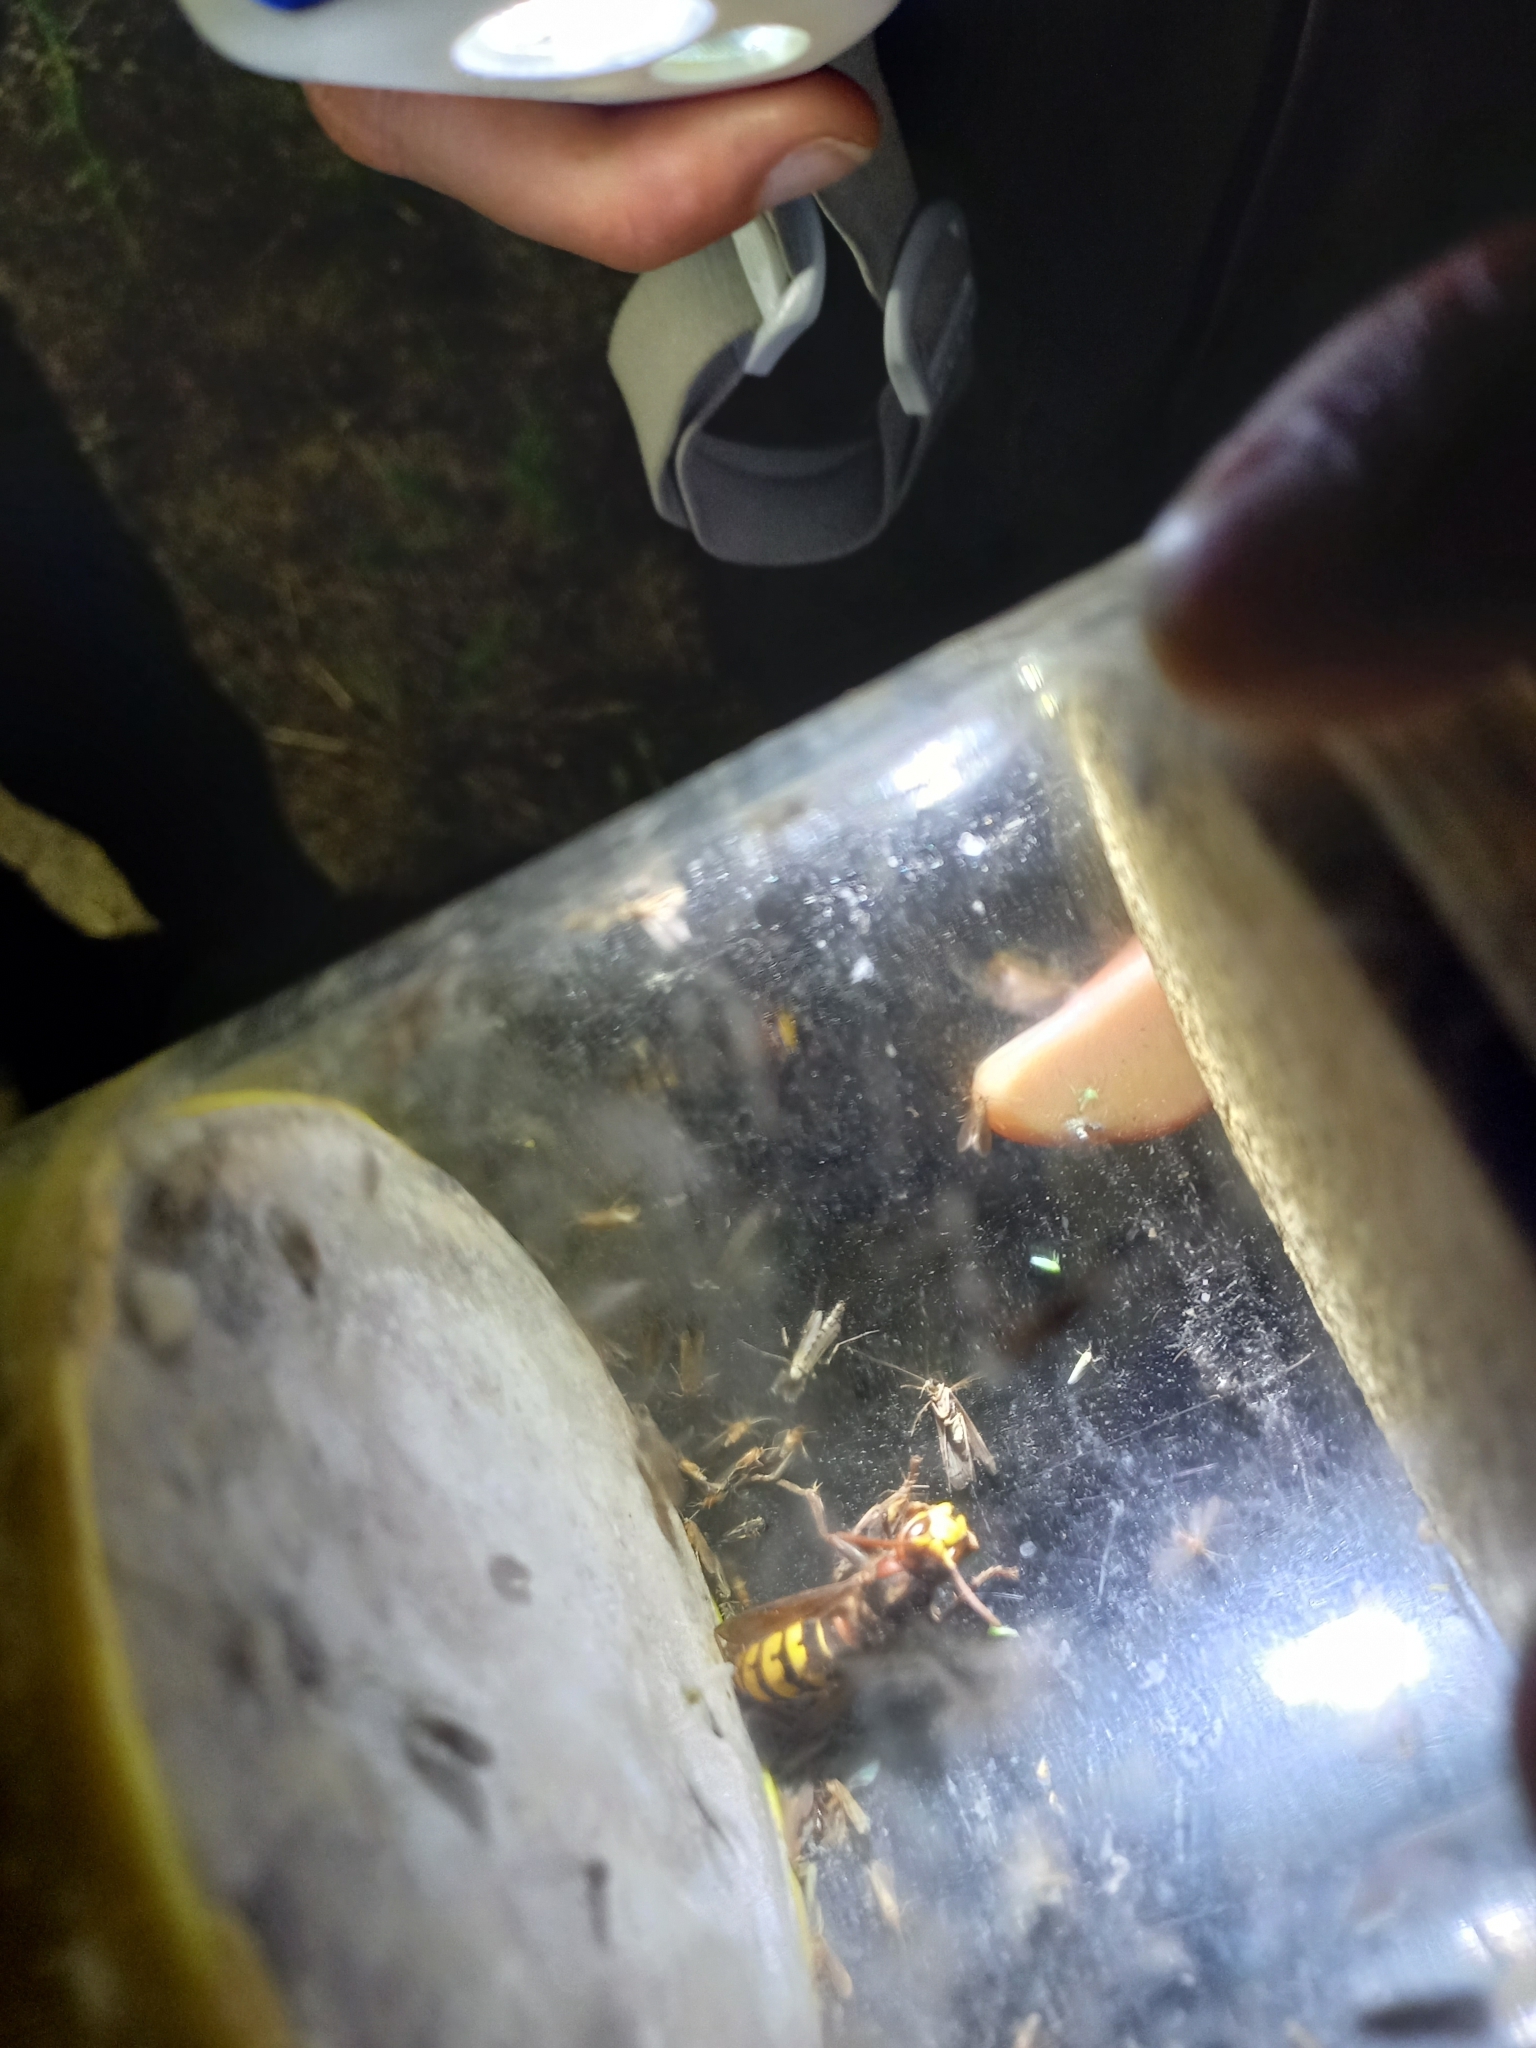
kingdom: Animalia
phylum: Arthropoda
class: Insecta
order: Hymenoptera
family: Vespidae
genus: Vespa
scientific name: Vespa crabro
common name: Hornet
